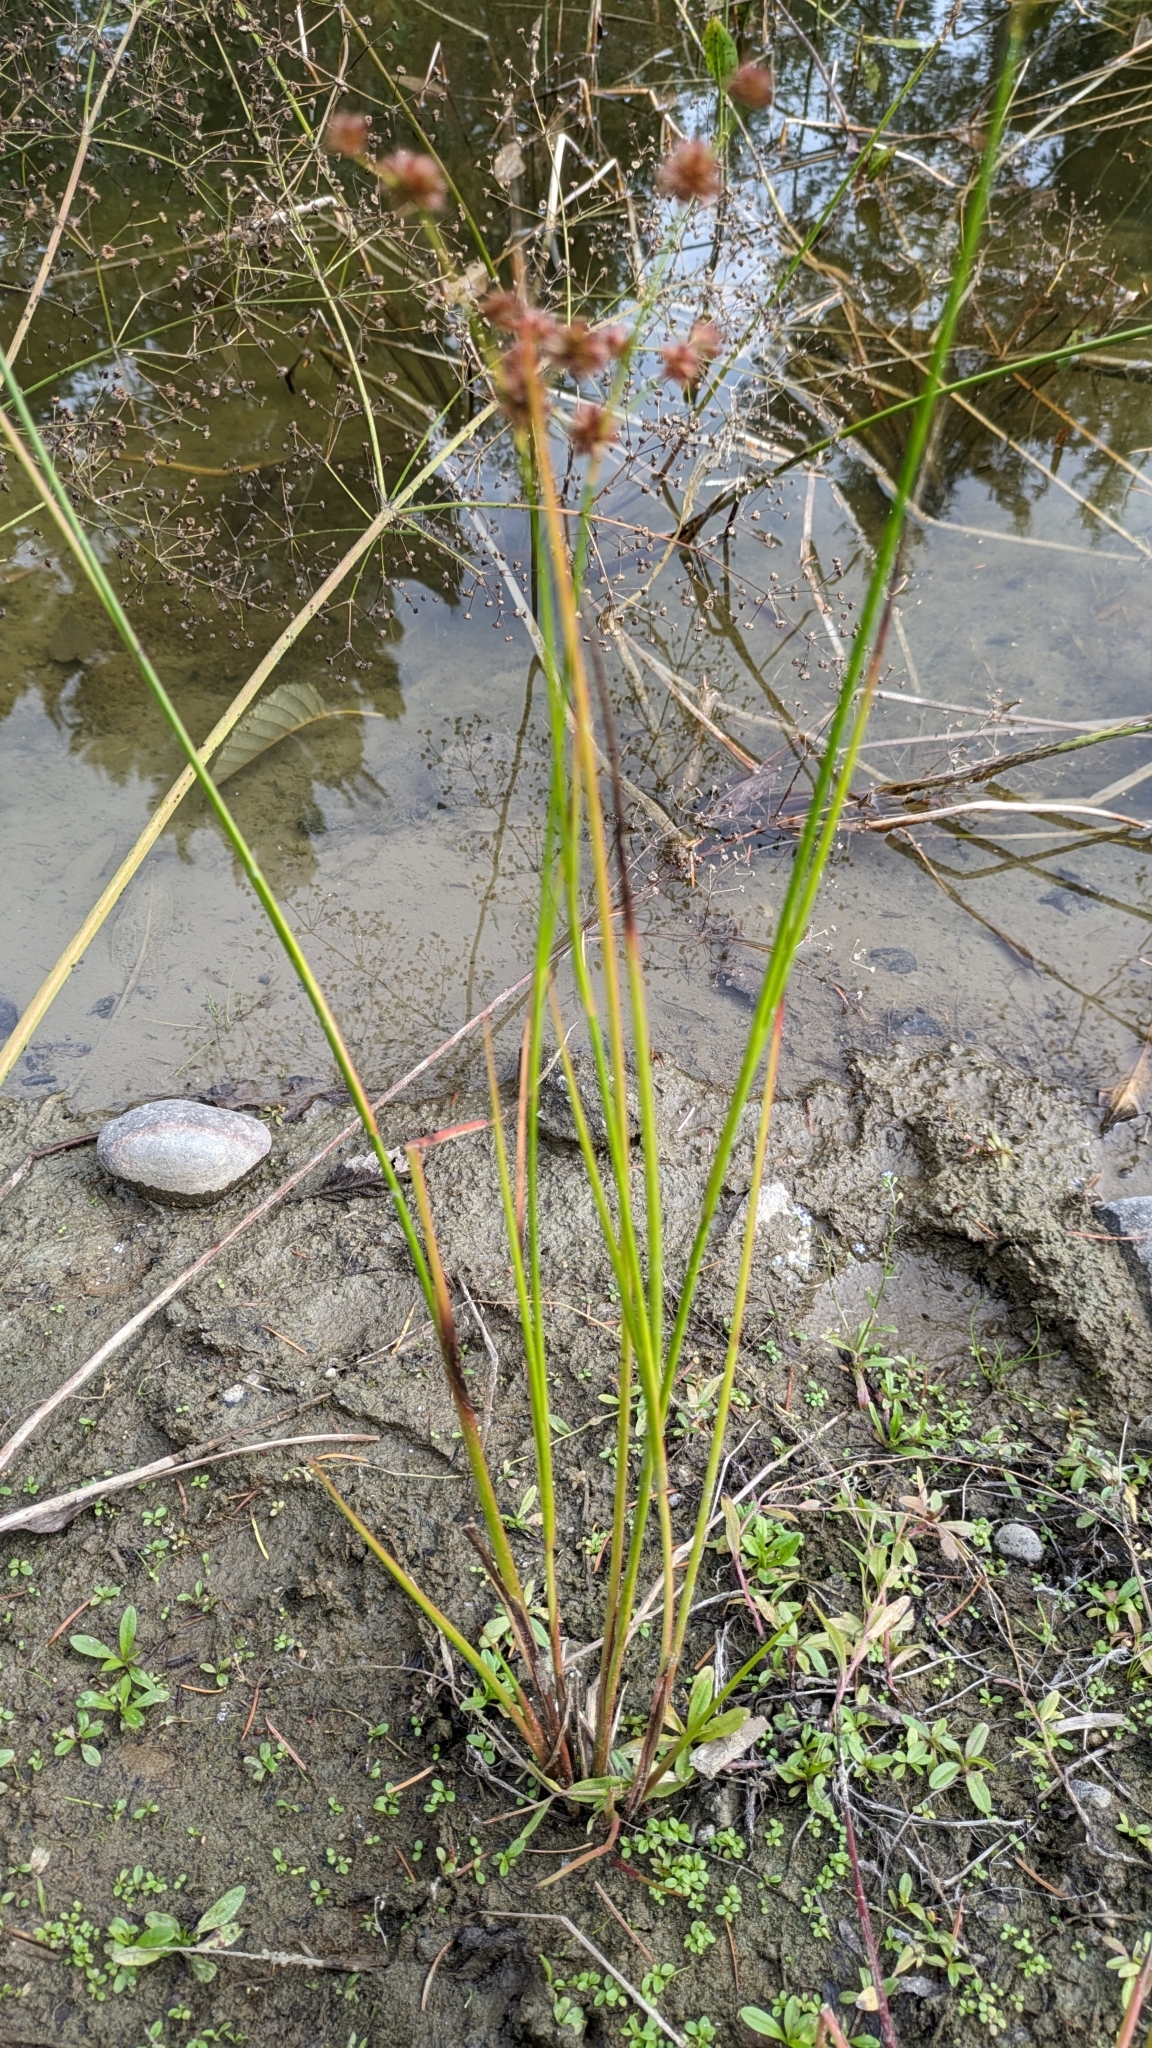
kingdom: Plantae
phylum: Tracheophyta
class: Liliopsida
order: Poales
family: Juncaceae
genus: Juncus
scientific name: Juncus canadensis
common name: Canada rush
